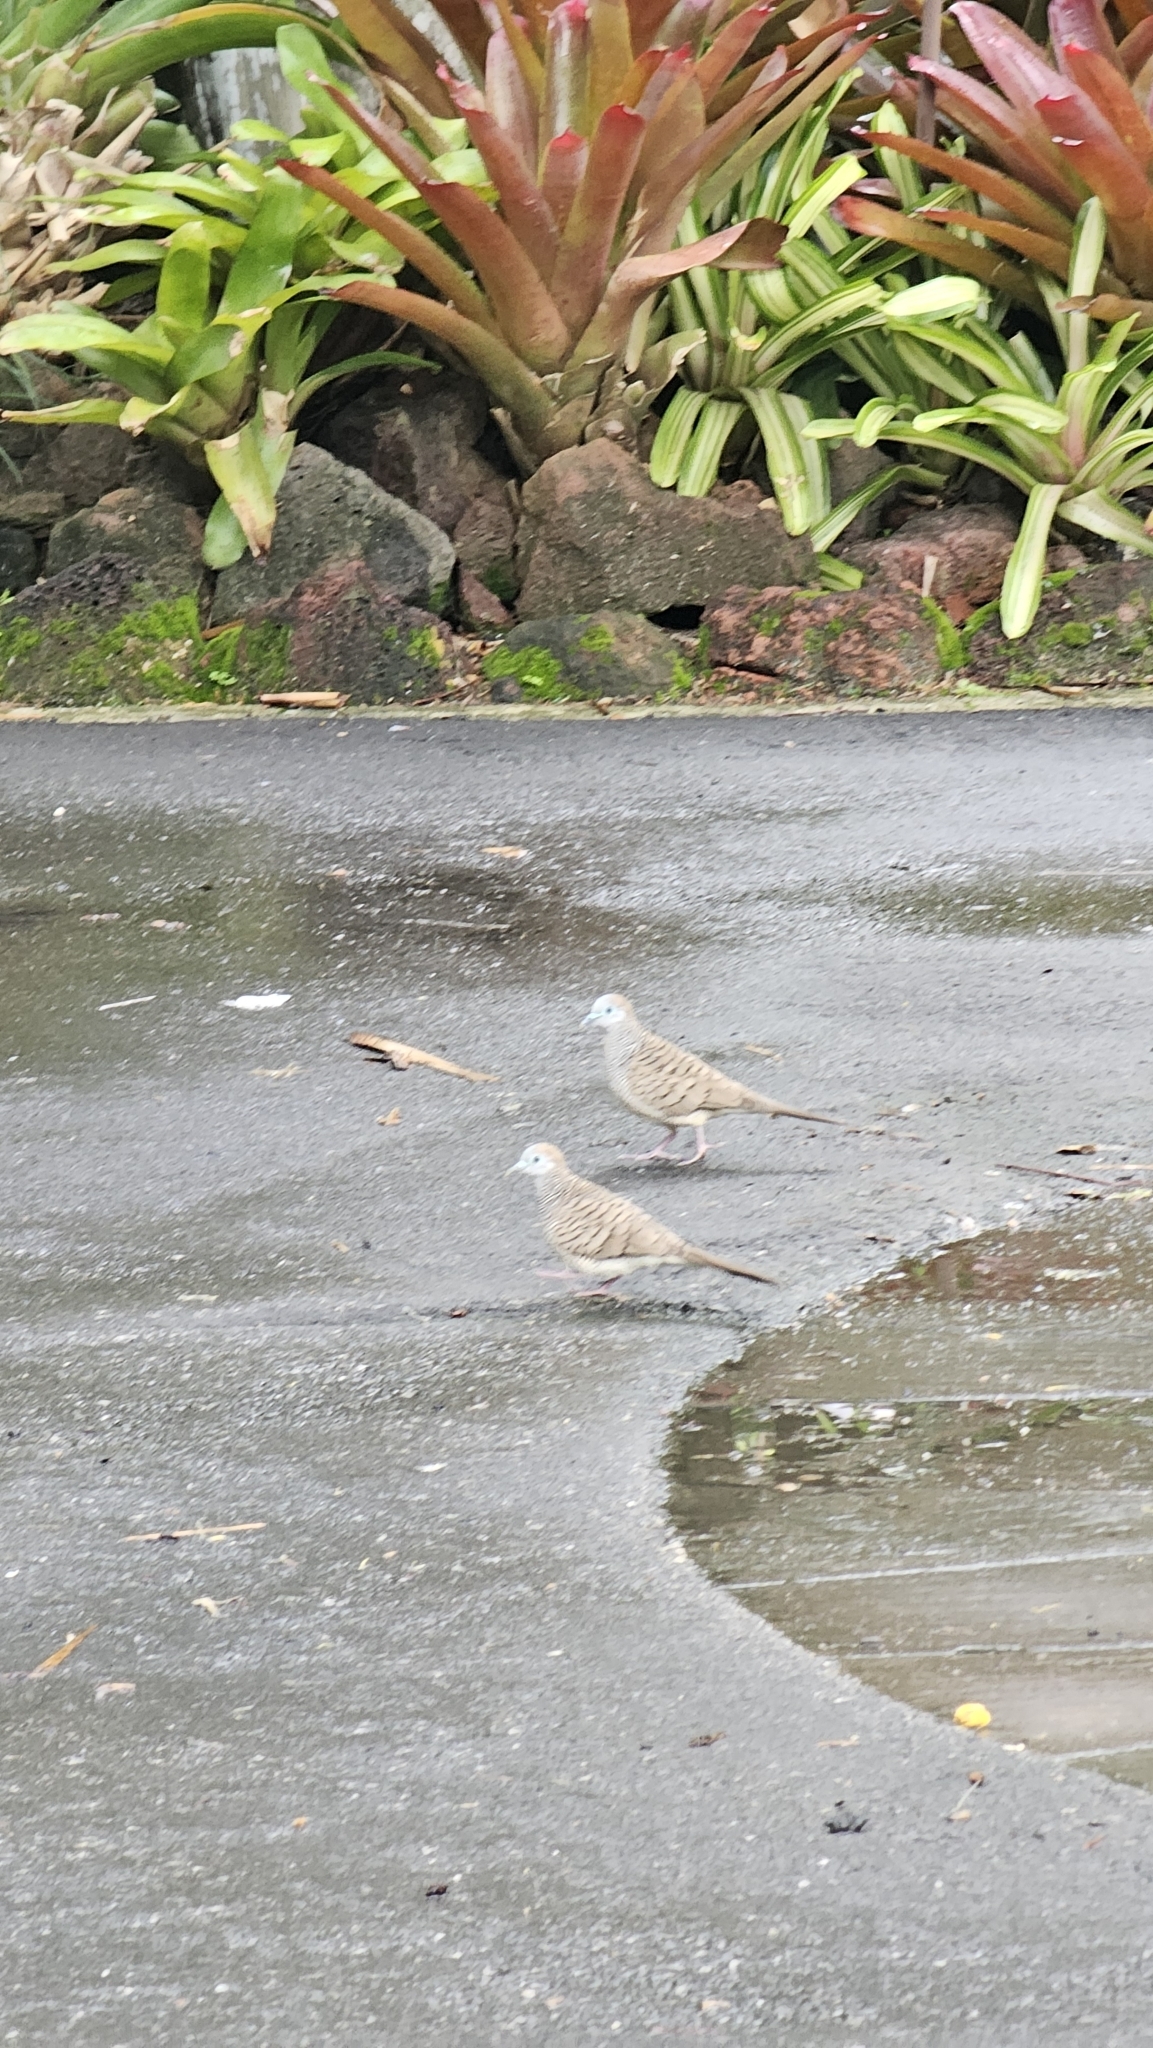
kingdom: Animalia
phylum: Chordata
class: Aves
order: Columbiformes
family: Columbidae
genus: Geopelia
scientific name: Geopelia striata
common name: Zebra dove
